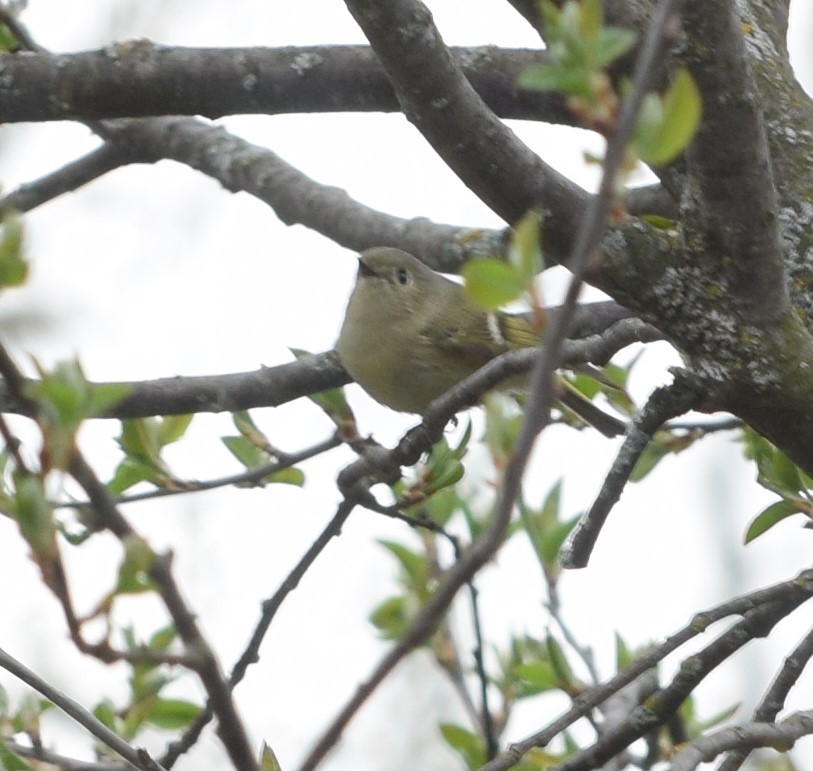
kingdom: Animalia
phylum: Chordata
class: Aves
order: Passeriformes
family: Regulidae
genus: Regulus
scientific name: Regulus calendula
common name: Ruby-crowned kinglet
